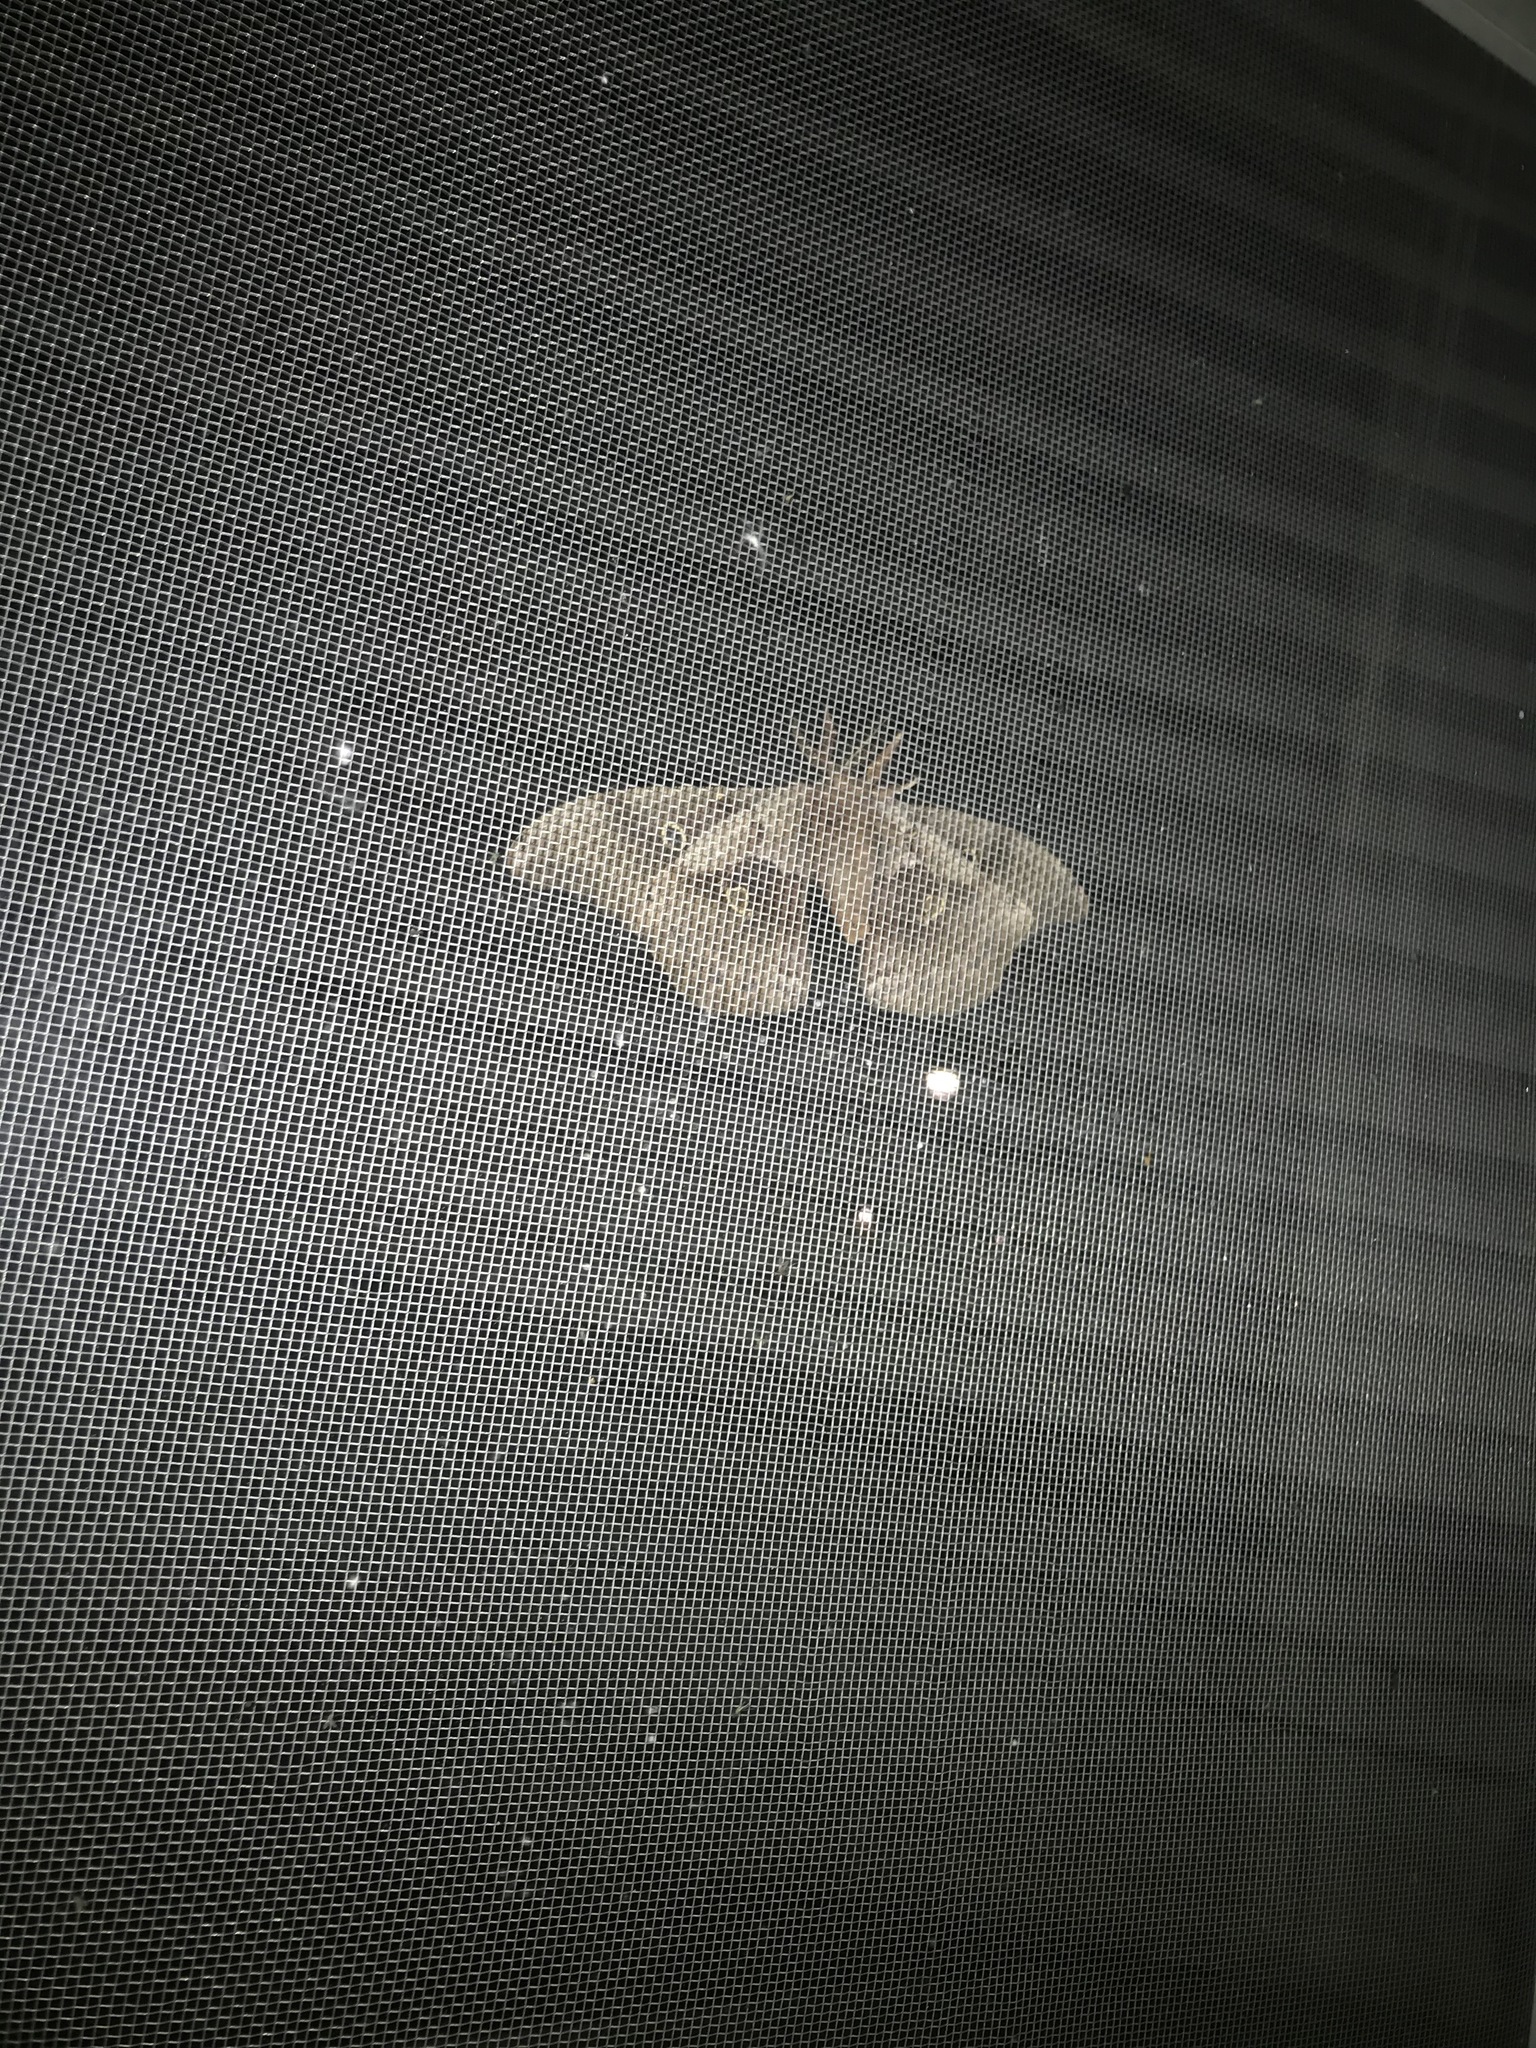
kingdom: Animalia
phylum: Arthropoda
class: Insecta
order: Lepidoptera
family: Saturniidae
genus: Antheraea
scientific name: Antheraea polyphemus
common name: Polyphemus moth
